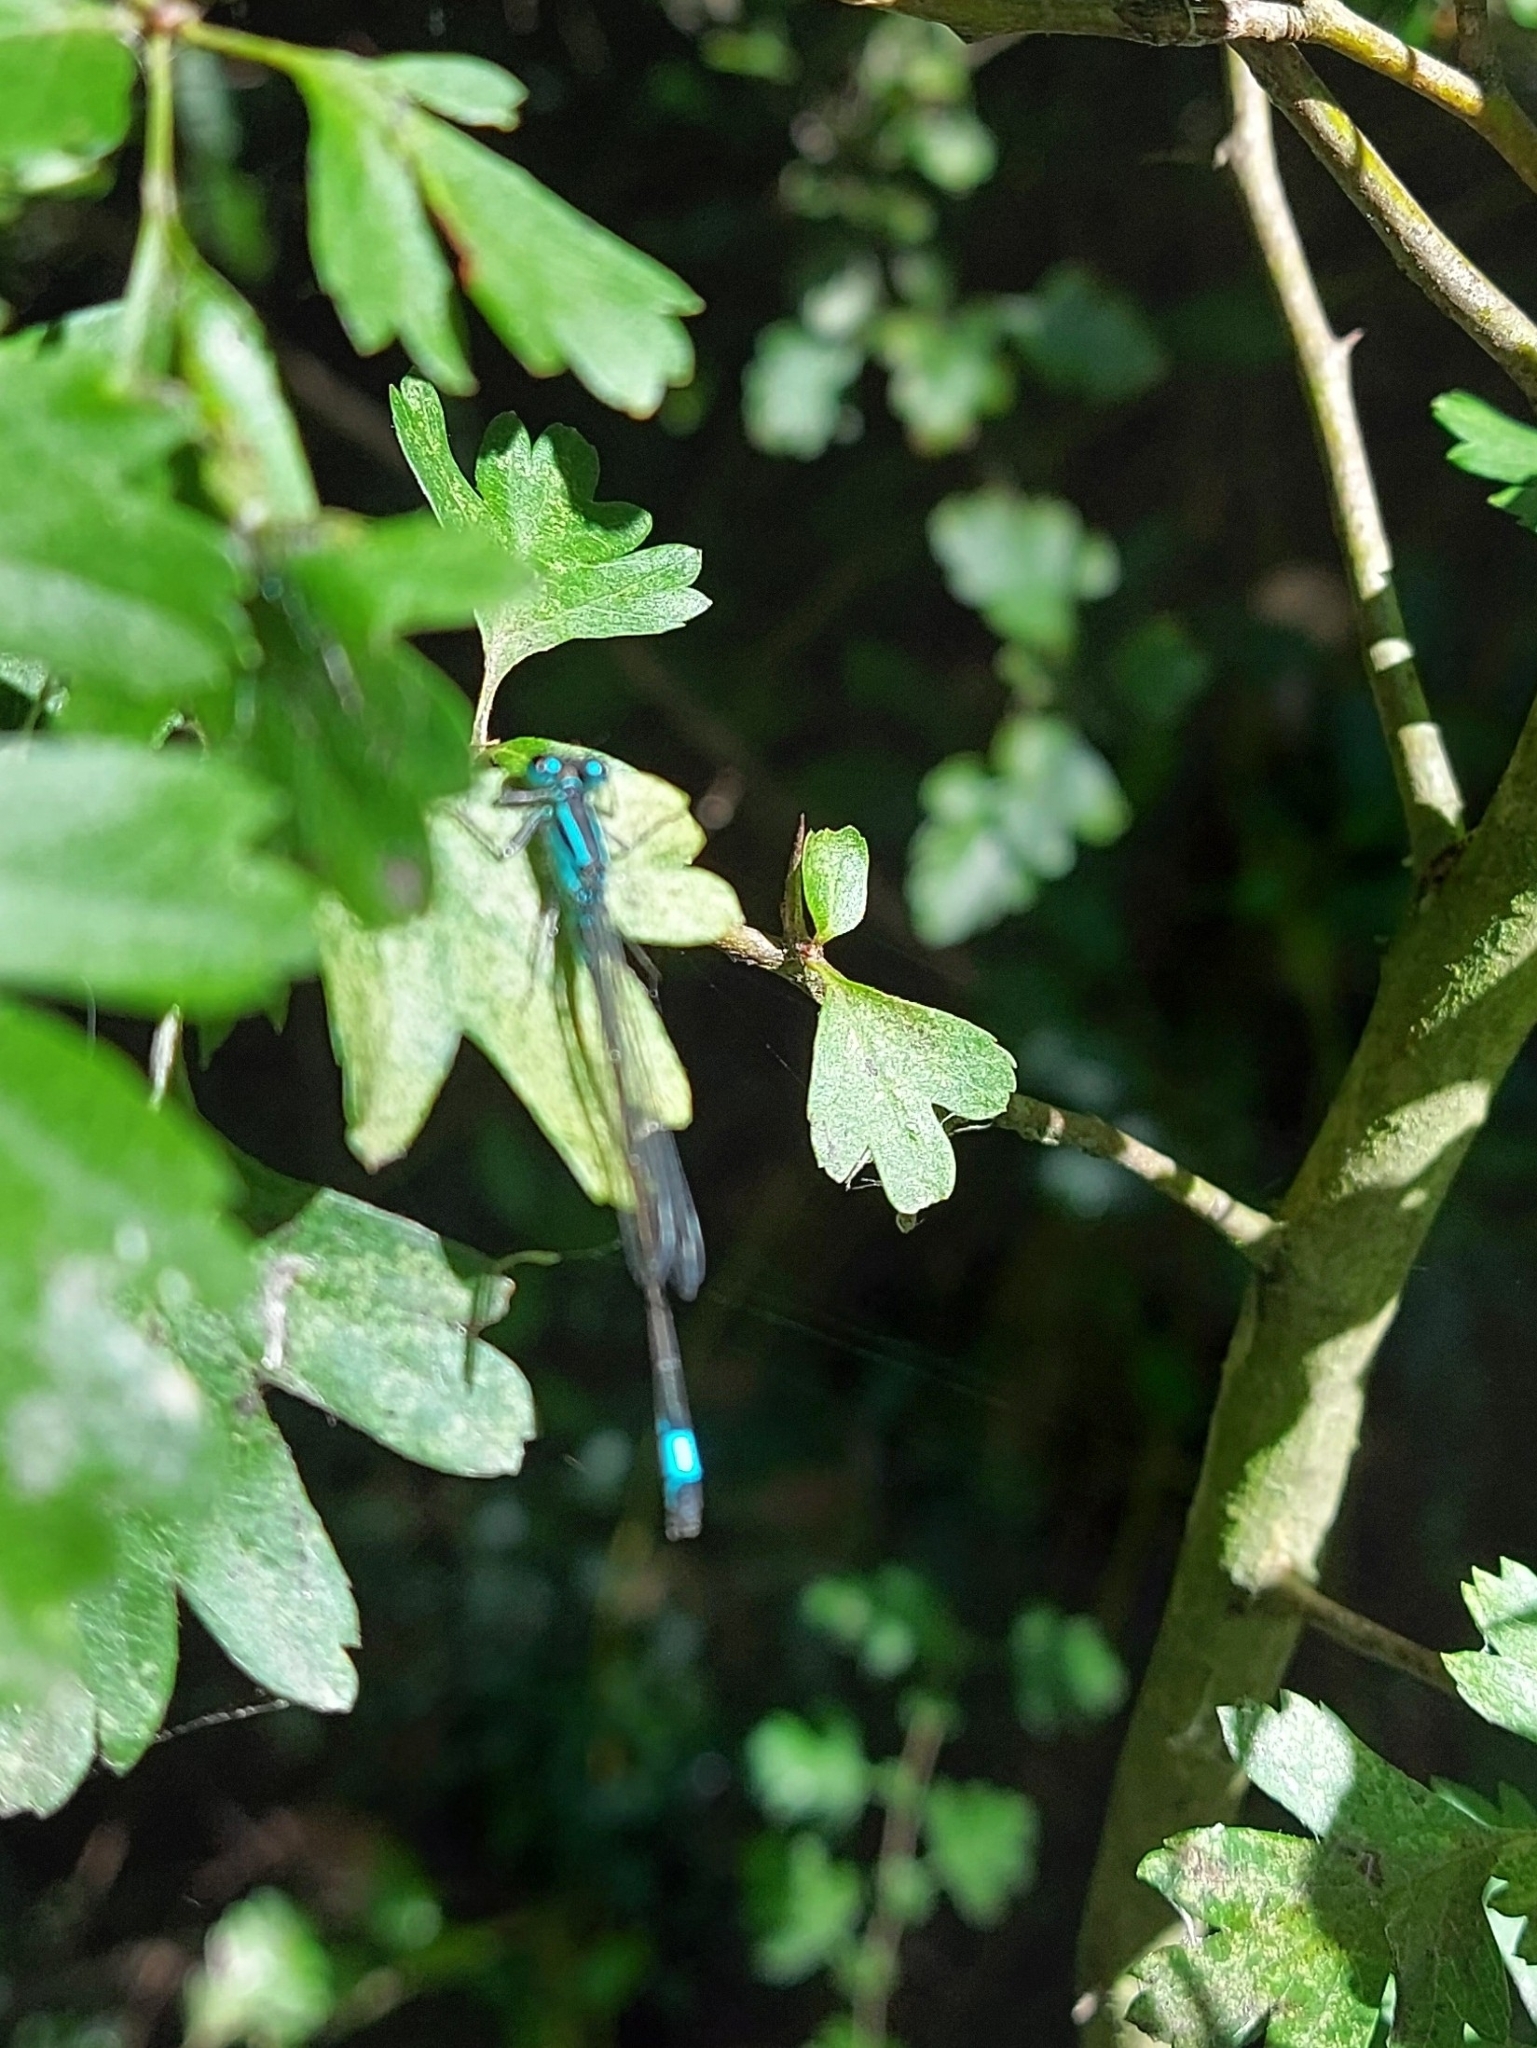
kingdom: Animalia
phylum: Arthropoda
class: Insecta
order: Odonata
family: Coenagrionidae
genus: Ischnura
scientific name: Ischnura elegans
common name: Blue-tailed damselfly
